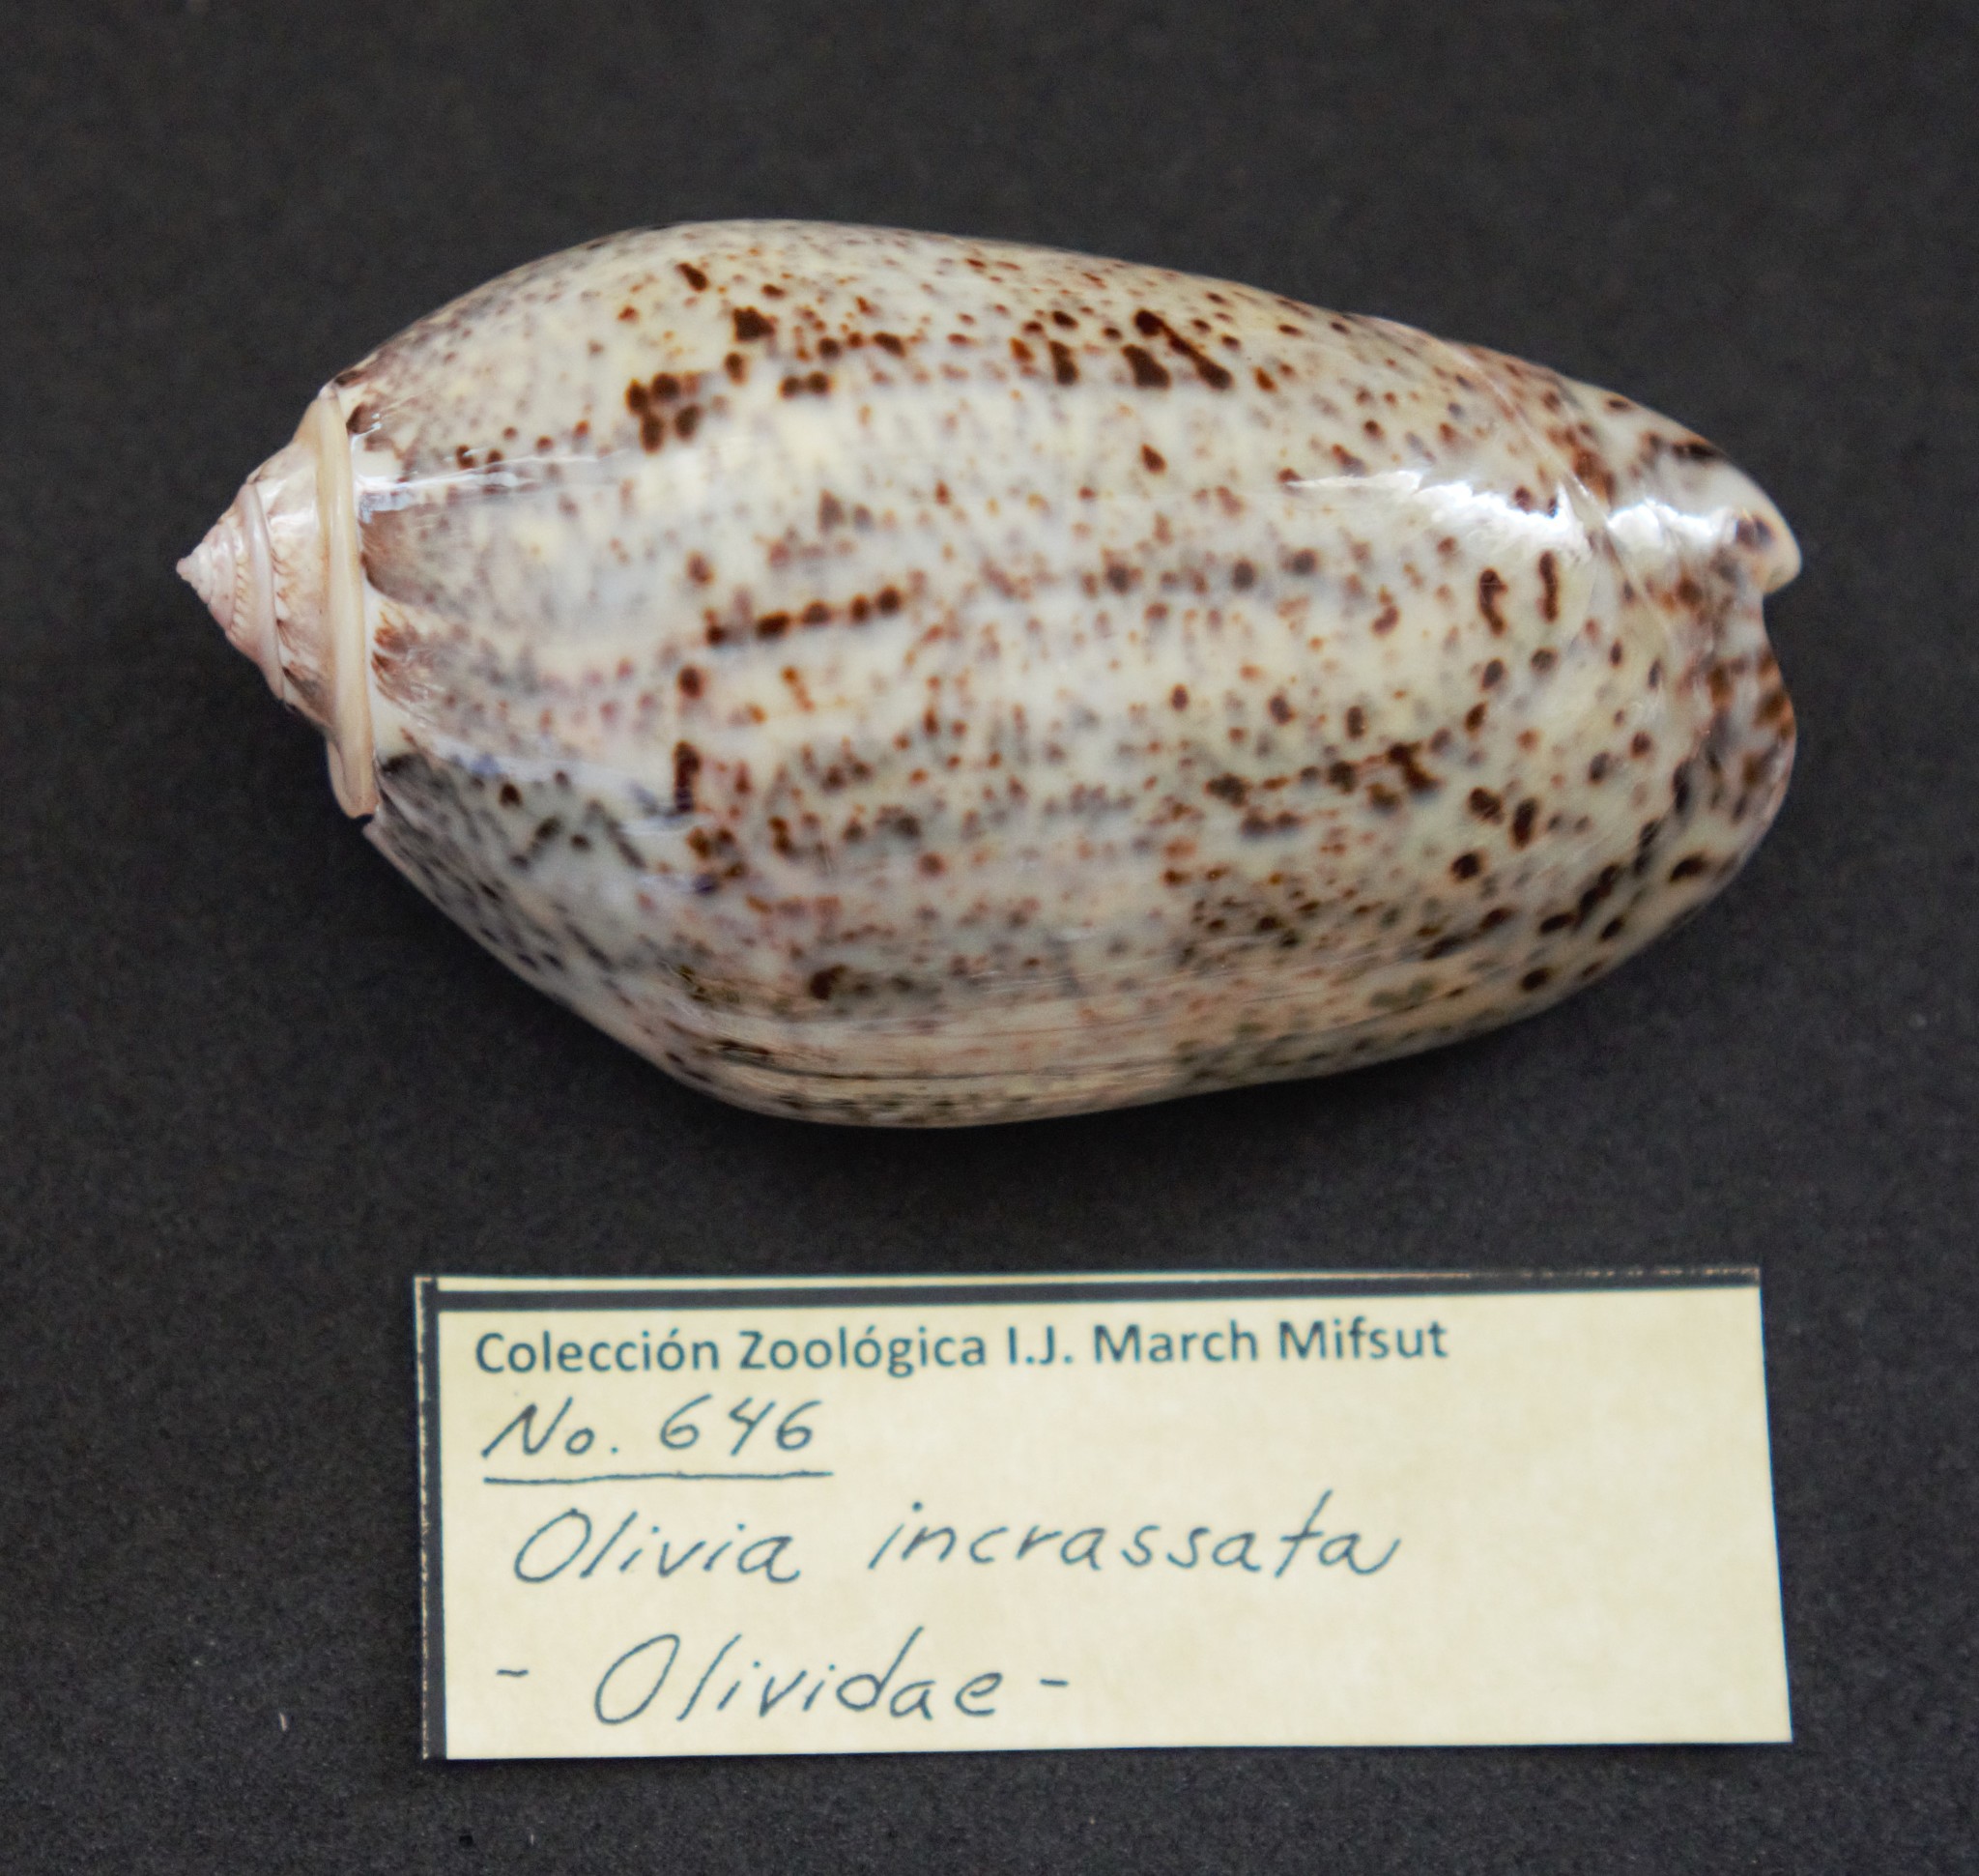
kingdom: Animalia
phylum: Mollusca
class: Gastropoda
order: Neogastropoda
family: Olividae
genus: Oliva
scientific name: Oliva incrassata
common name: Angled olive
